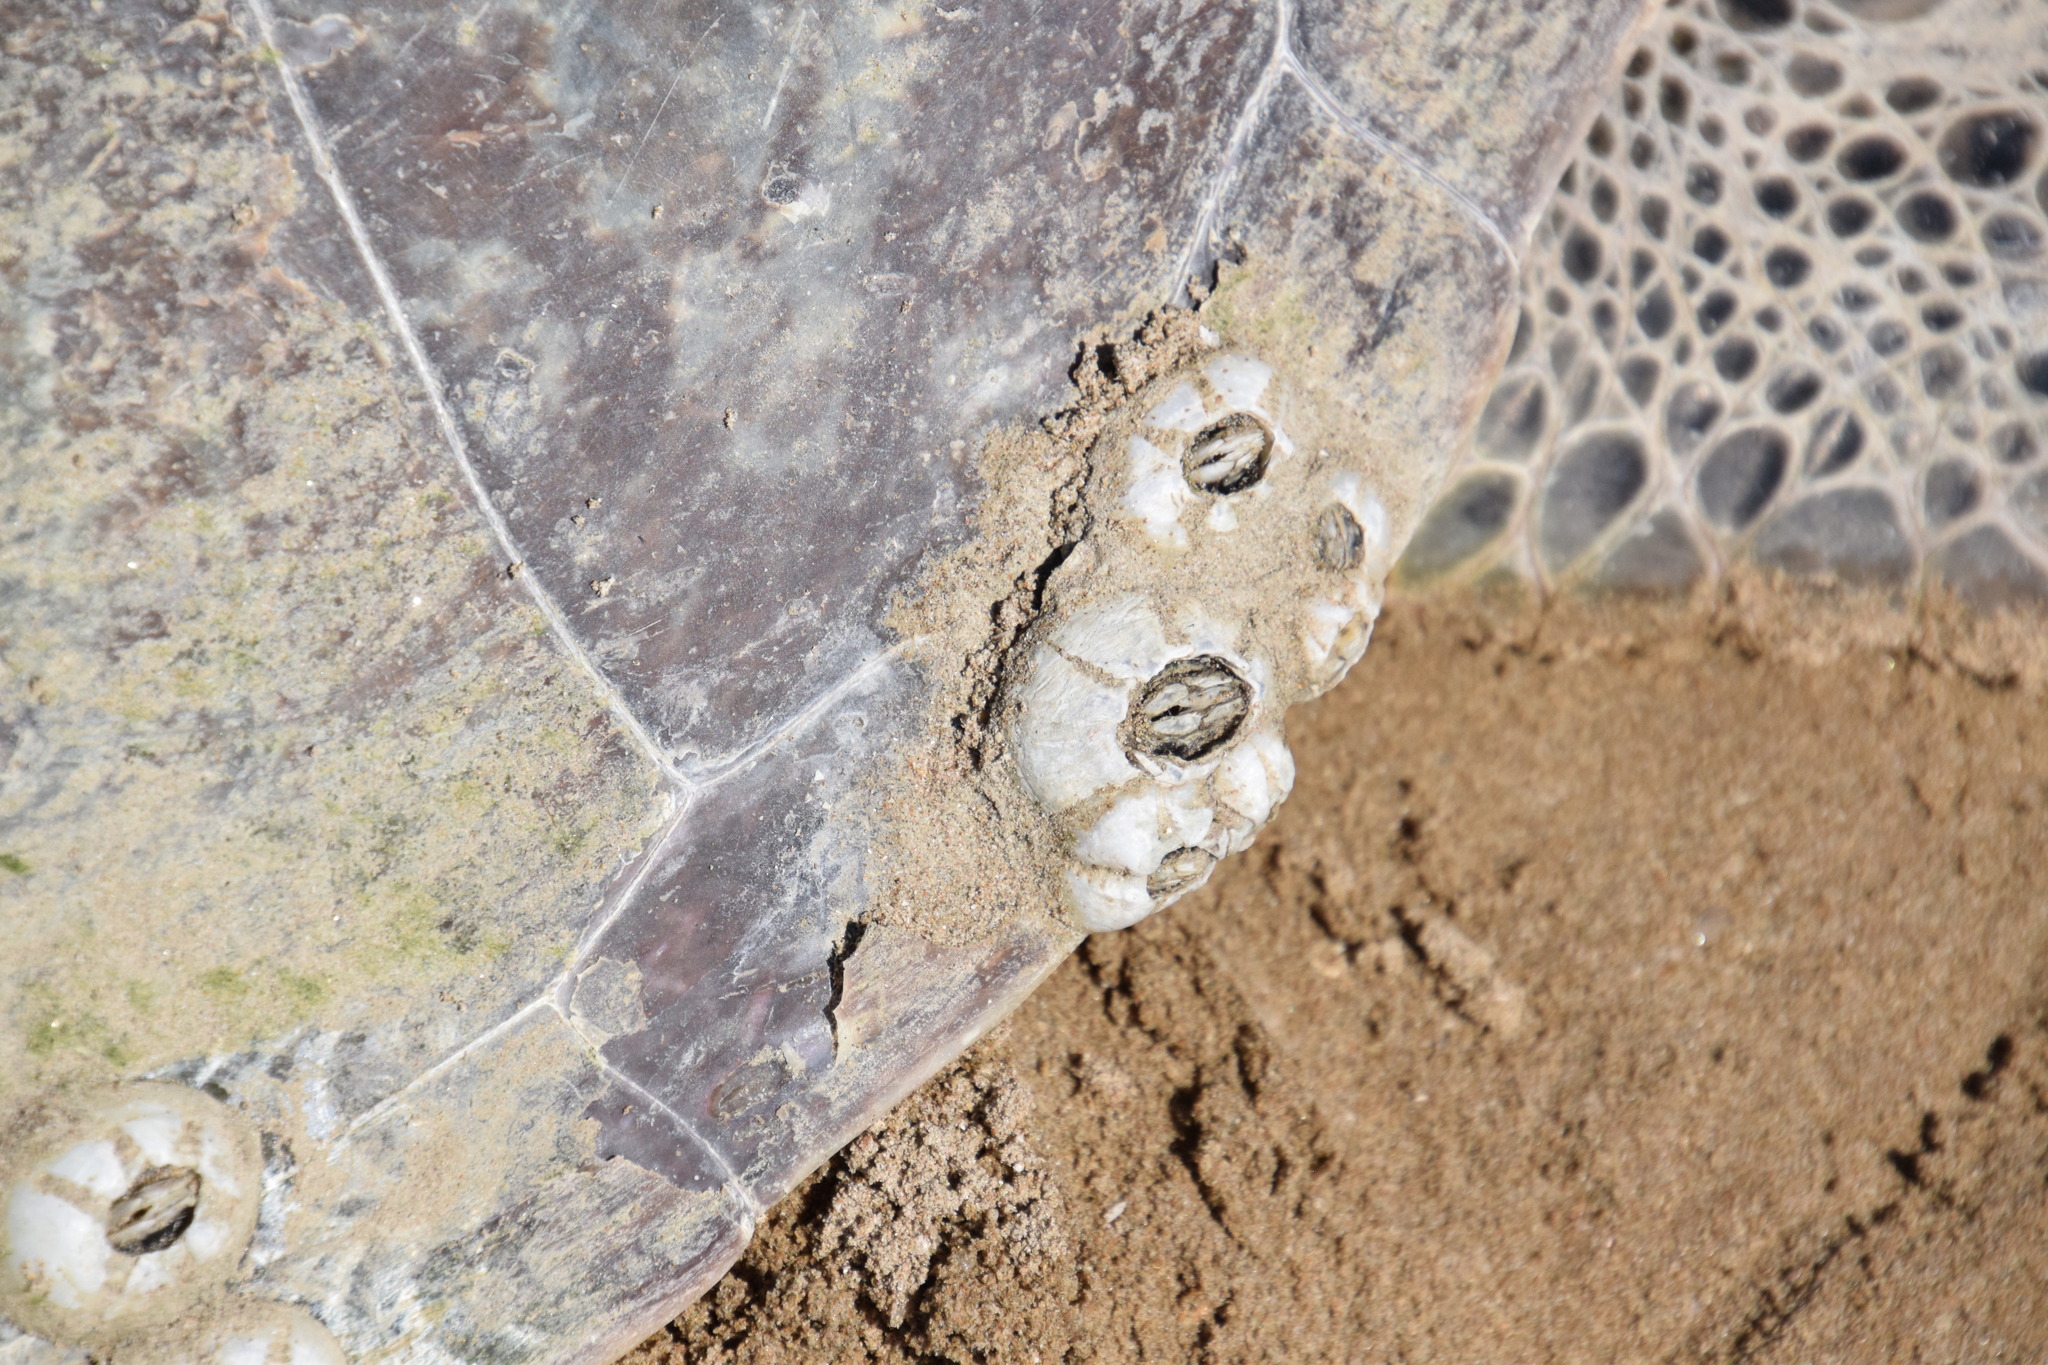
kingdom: Animalia
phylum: Arthropoda
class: Maxillopoda
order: Sessilia
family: Chelonibiidae
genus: Chelonibia
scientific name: Chelonibia testudinaria
